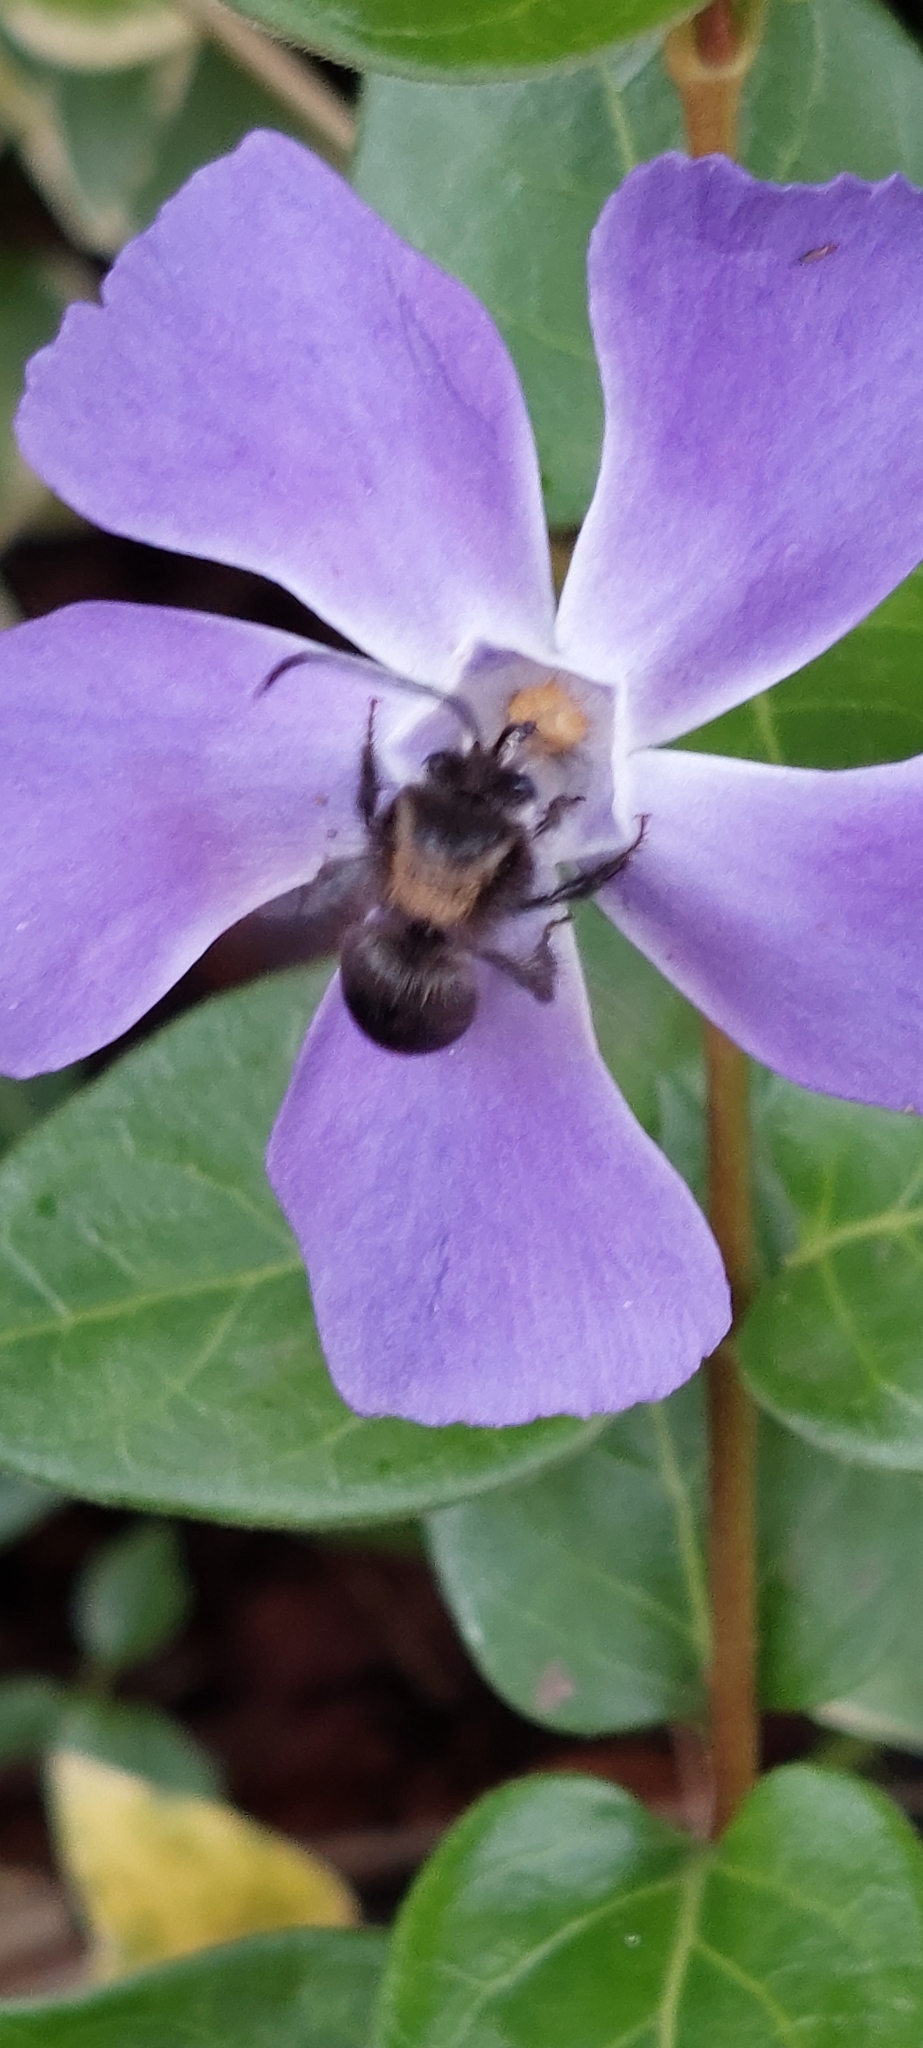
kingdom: Animalia
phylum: Arthropoda
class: Insecta
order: Hymenoptera
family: Apidae
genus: Thygater
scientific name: Thygater aethiops
